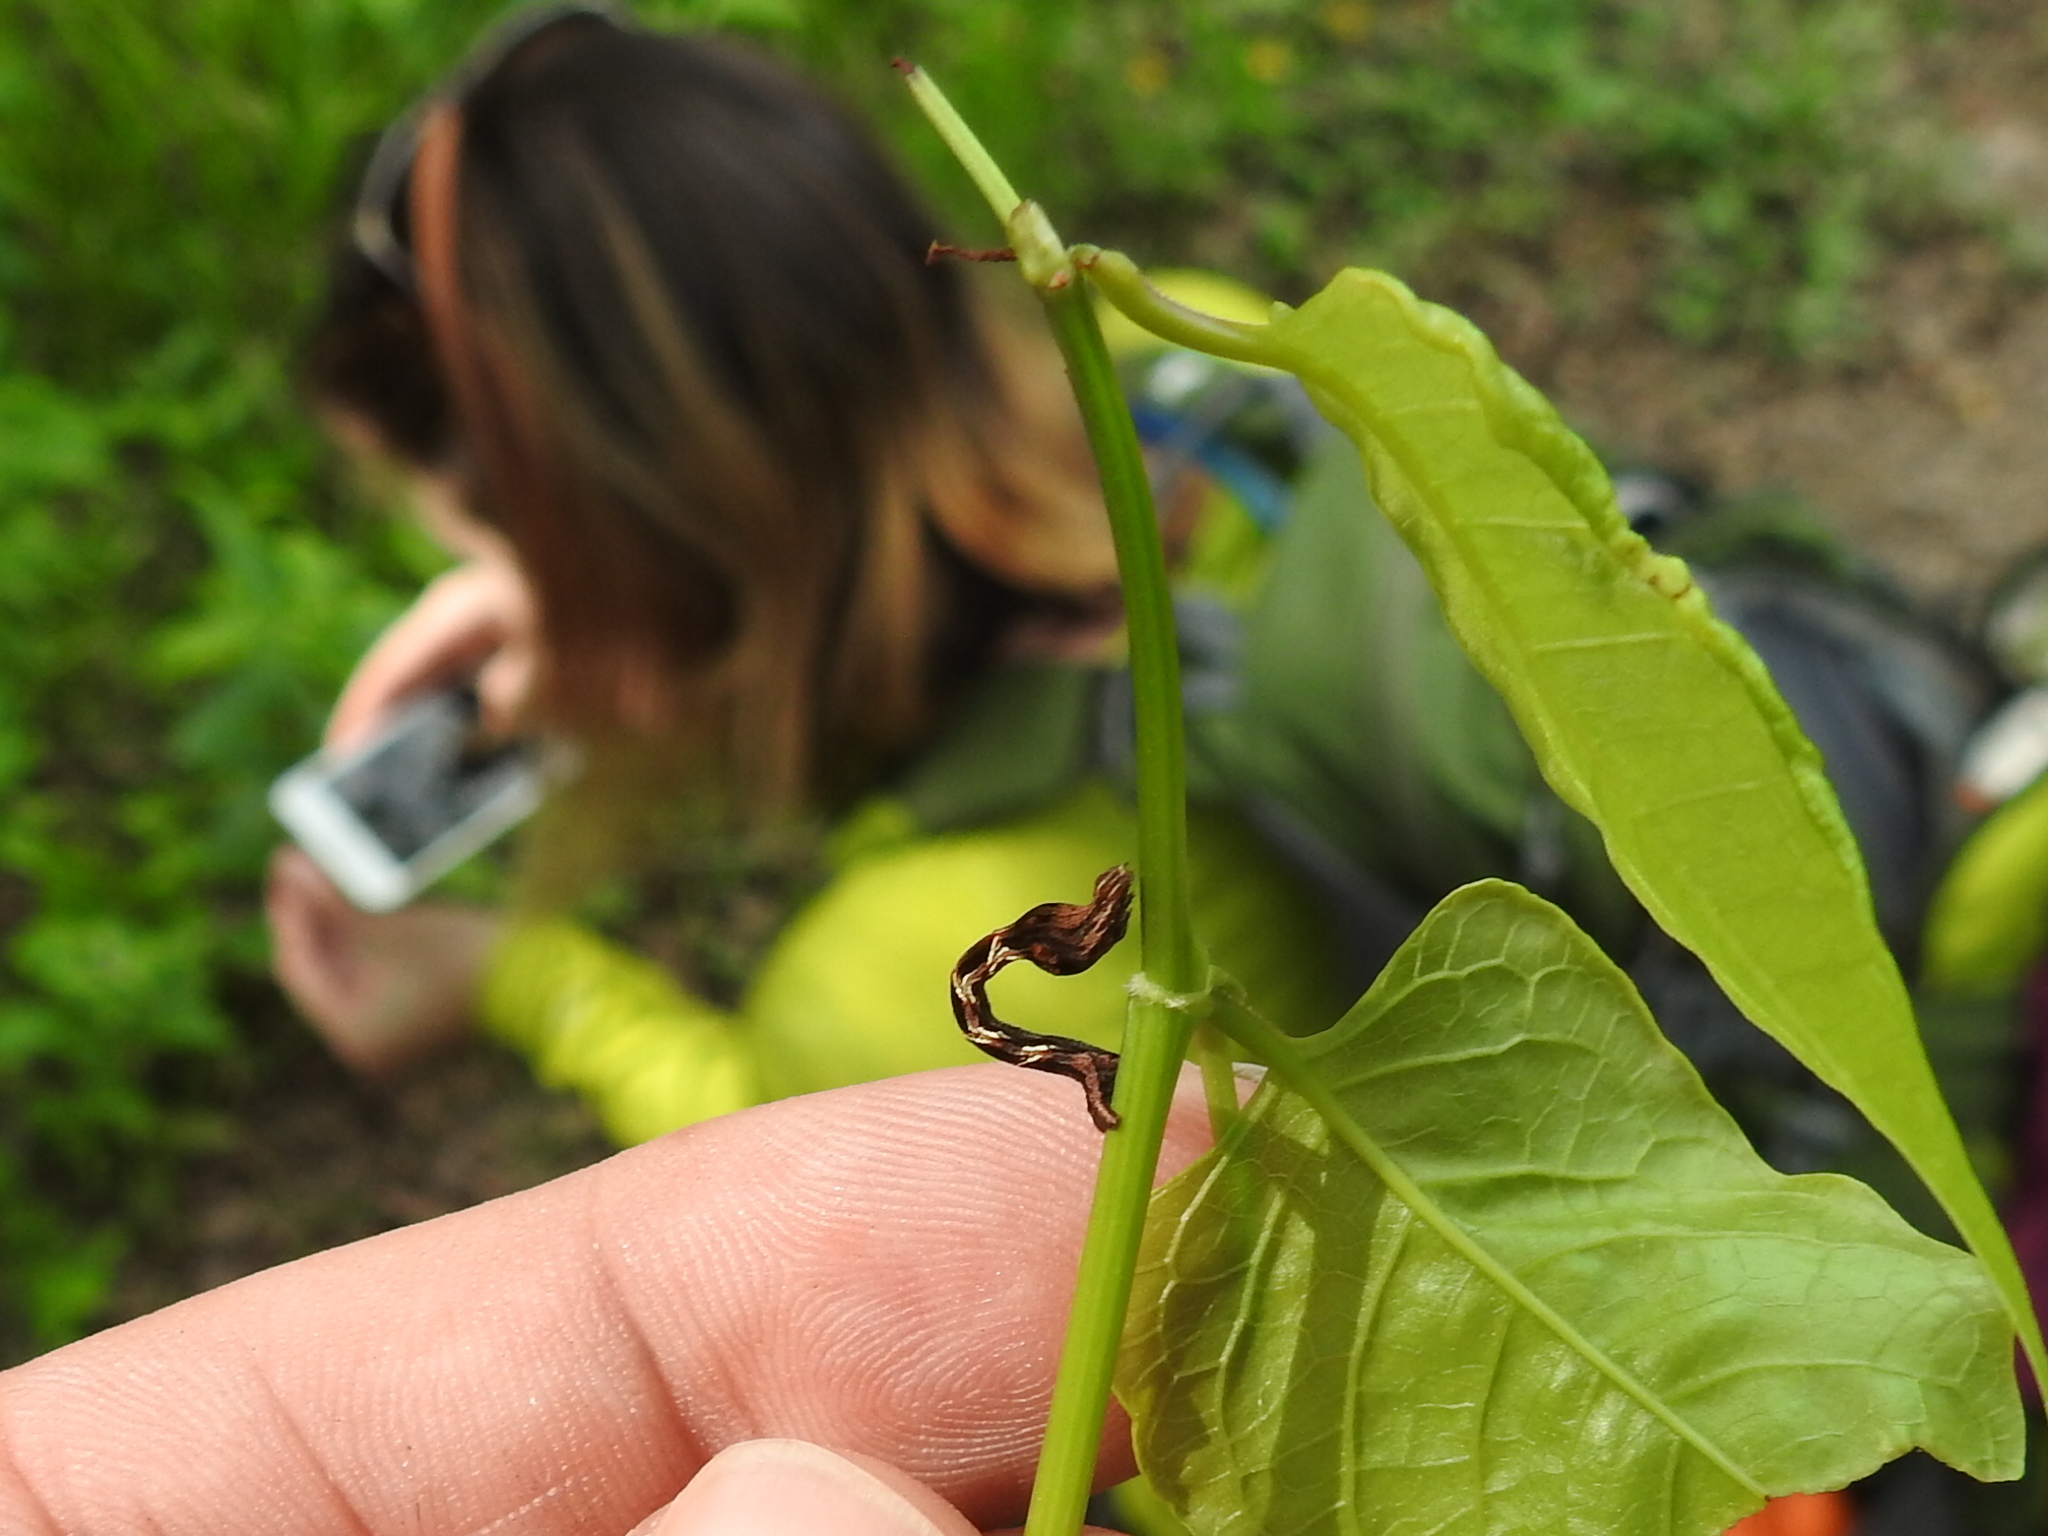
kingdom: Animalia
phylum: Arthropoda
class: Insecta
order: Lepidoptera
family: Geometridae
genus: Timandra
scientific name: Timandra amaturaria
